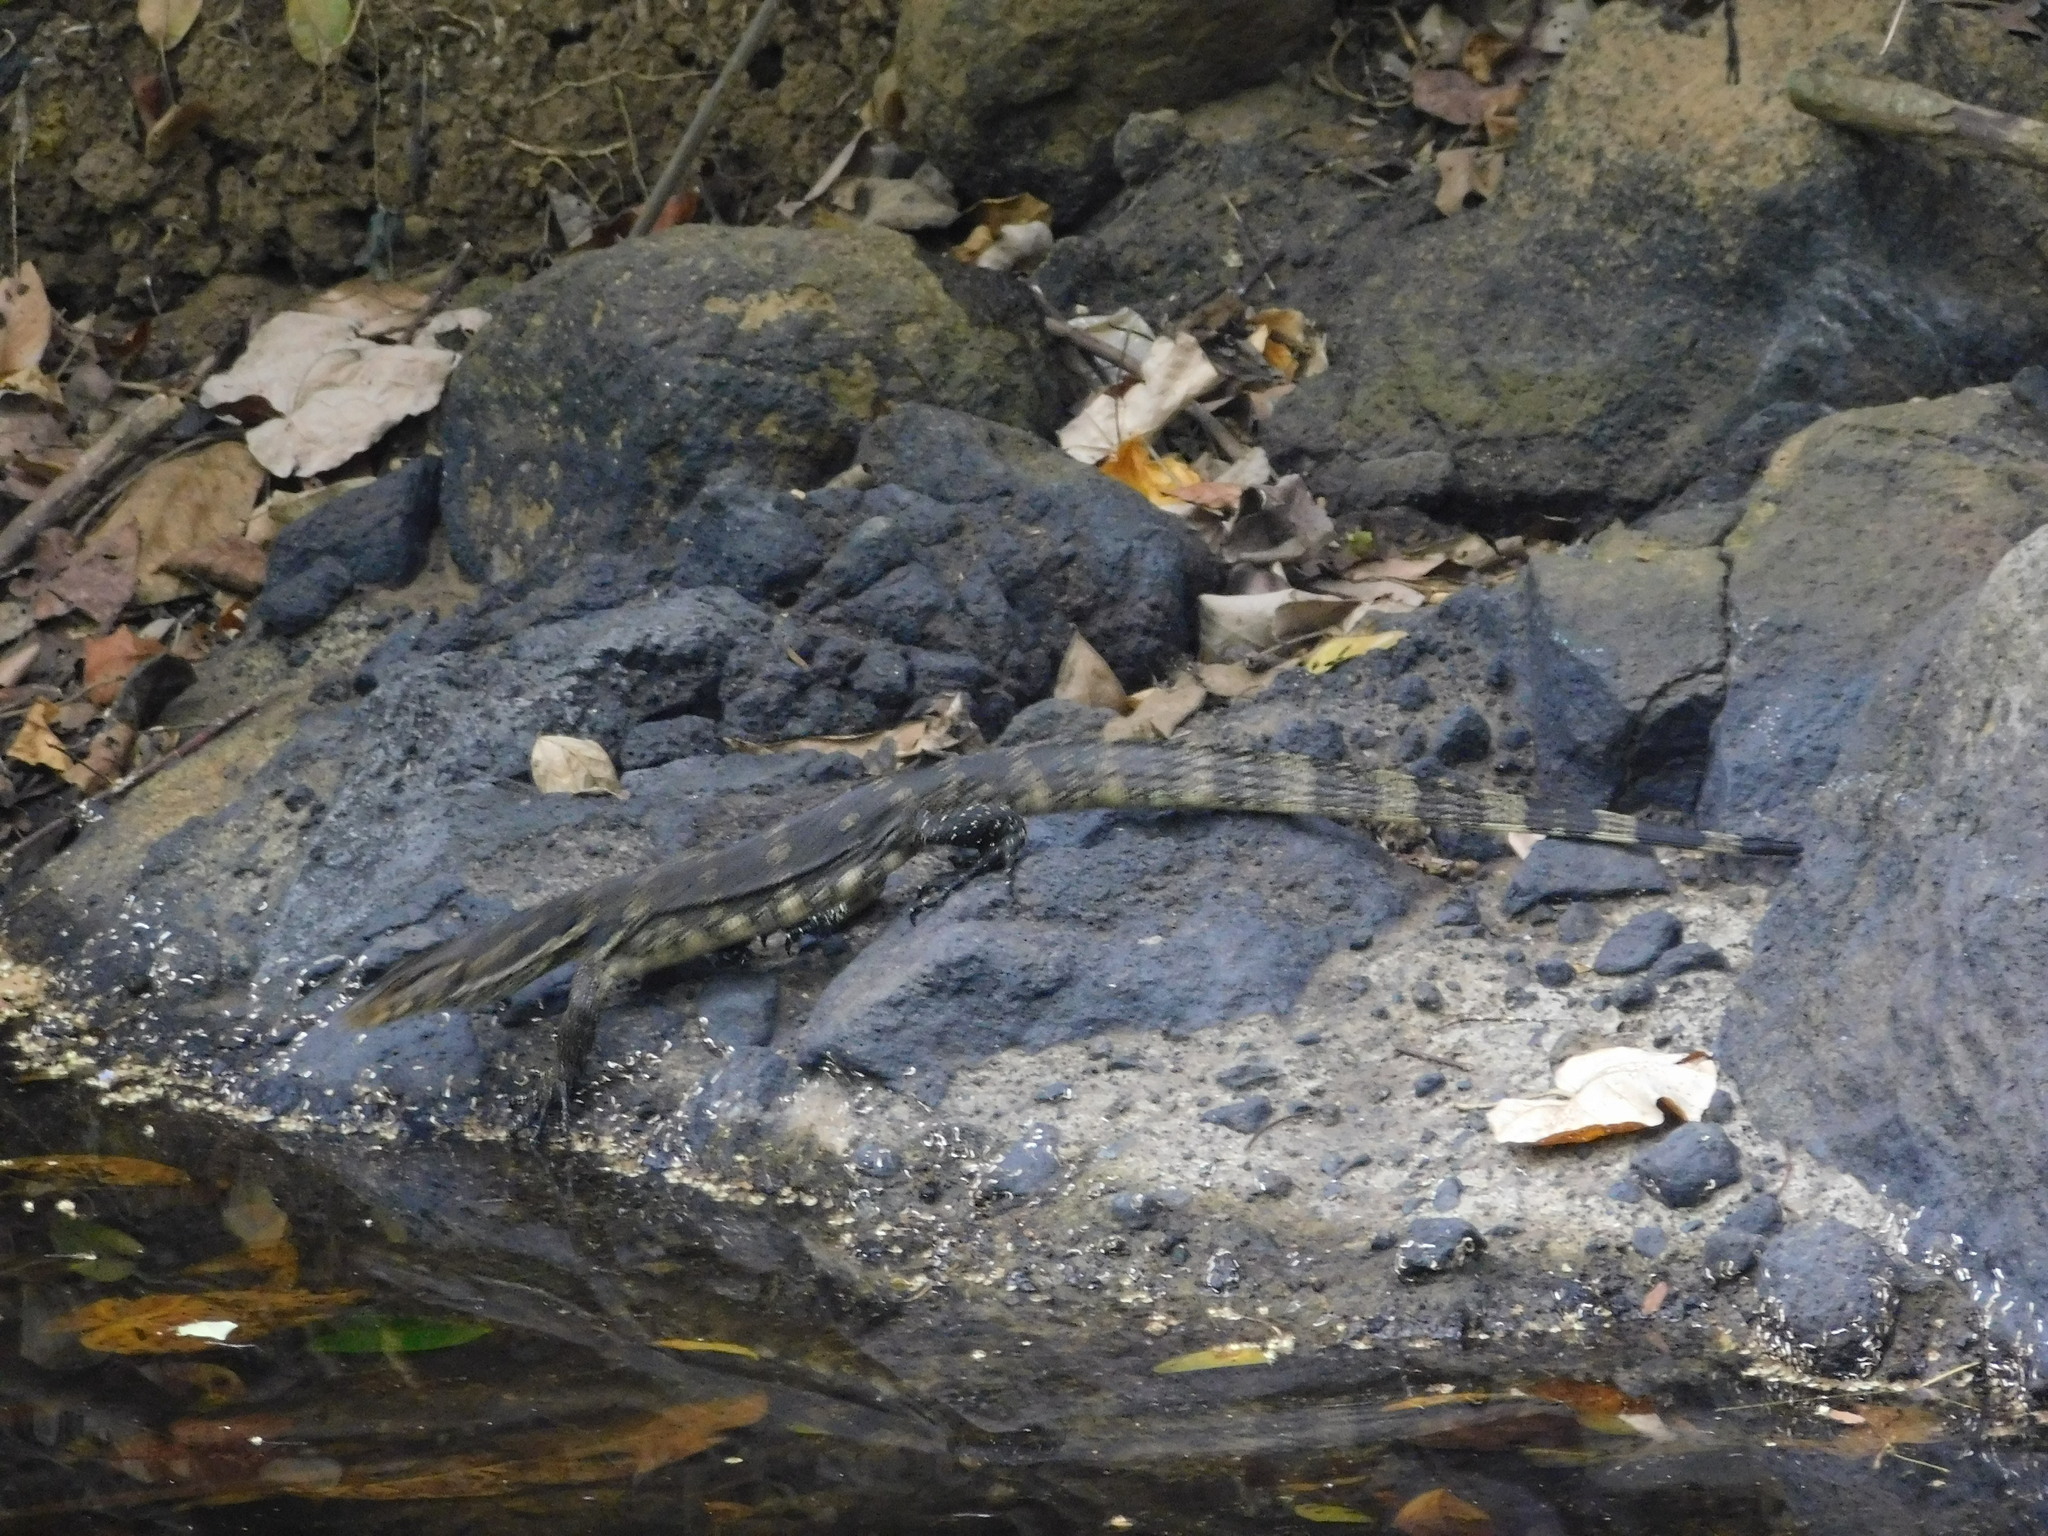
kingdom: Animalia
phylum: Chordata
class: Squamata
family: Varanidae
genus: Varanus
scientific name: Varanus salvator
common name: Common water monitor
